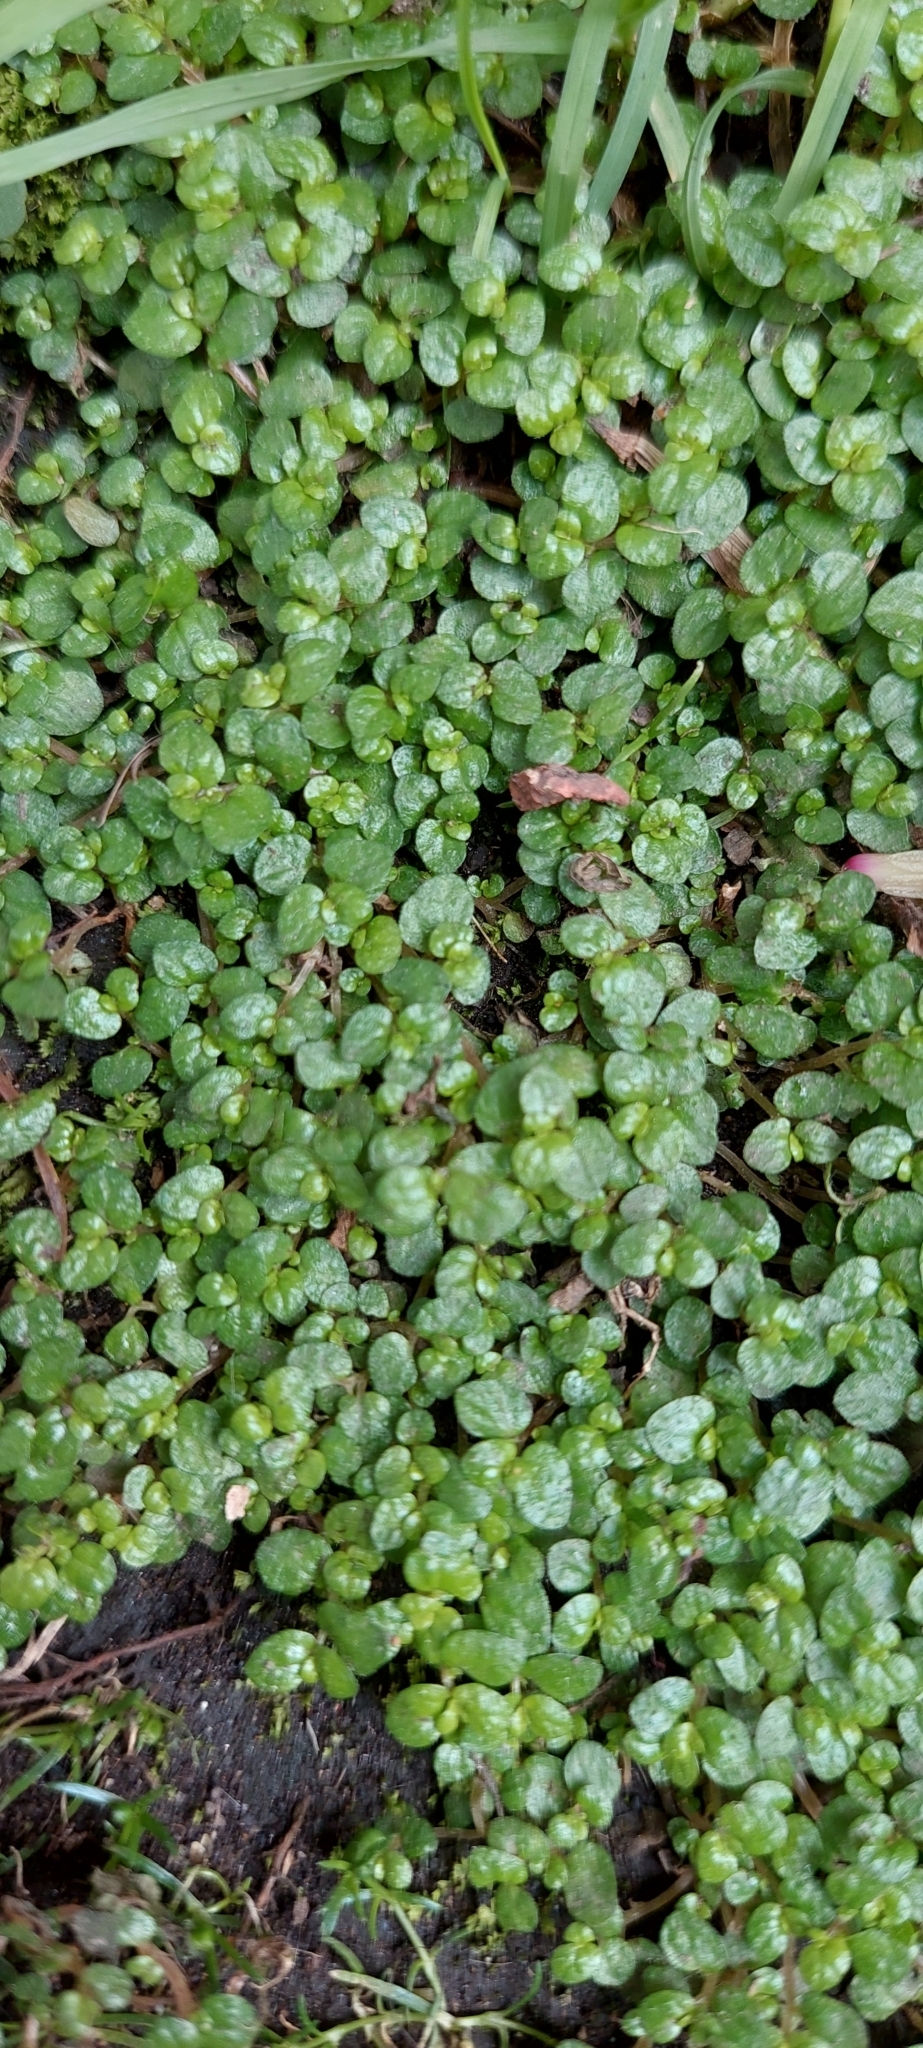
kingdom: Plantae
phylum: Tracheophyta
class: Magnoliopsida
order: Rosales
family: Urticaceae
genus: Soleirolia
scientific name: Soleirolia soleirolii
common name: Mind-your-own-business
